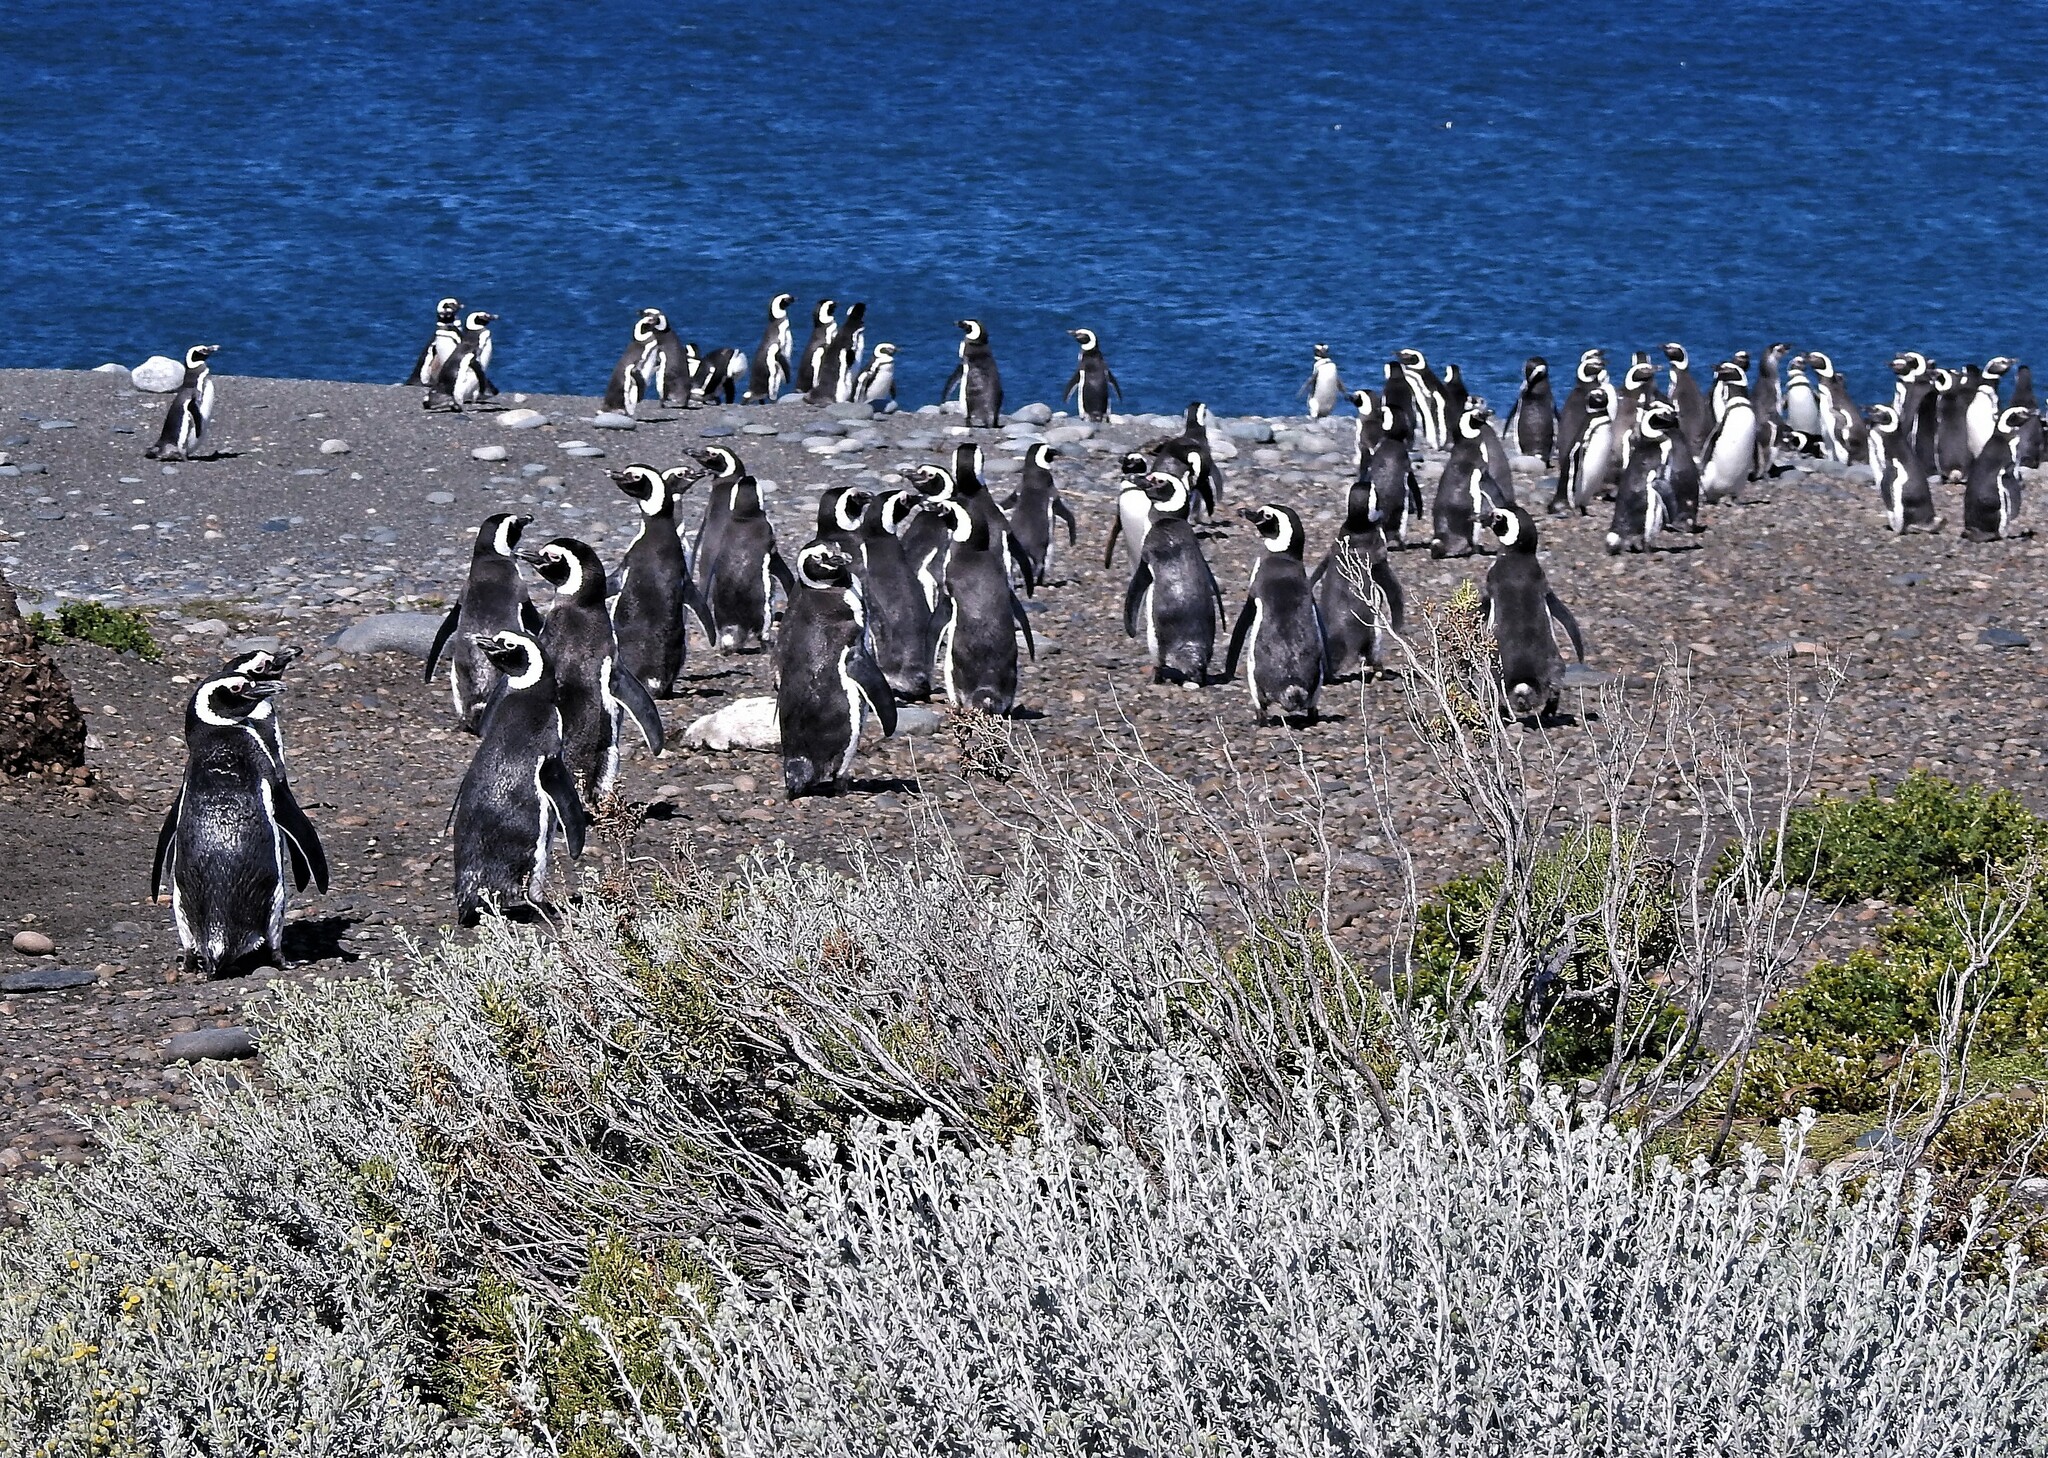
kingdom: Animalia
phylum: Chordata
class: Aves
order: Sphenisciformes
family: Spheniscidae
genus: Spheniscus
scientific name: Spheniscus magellanicus
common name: Magellanic penguin
